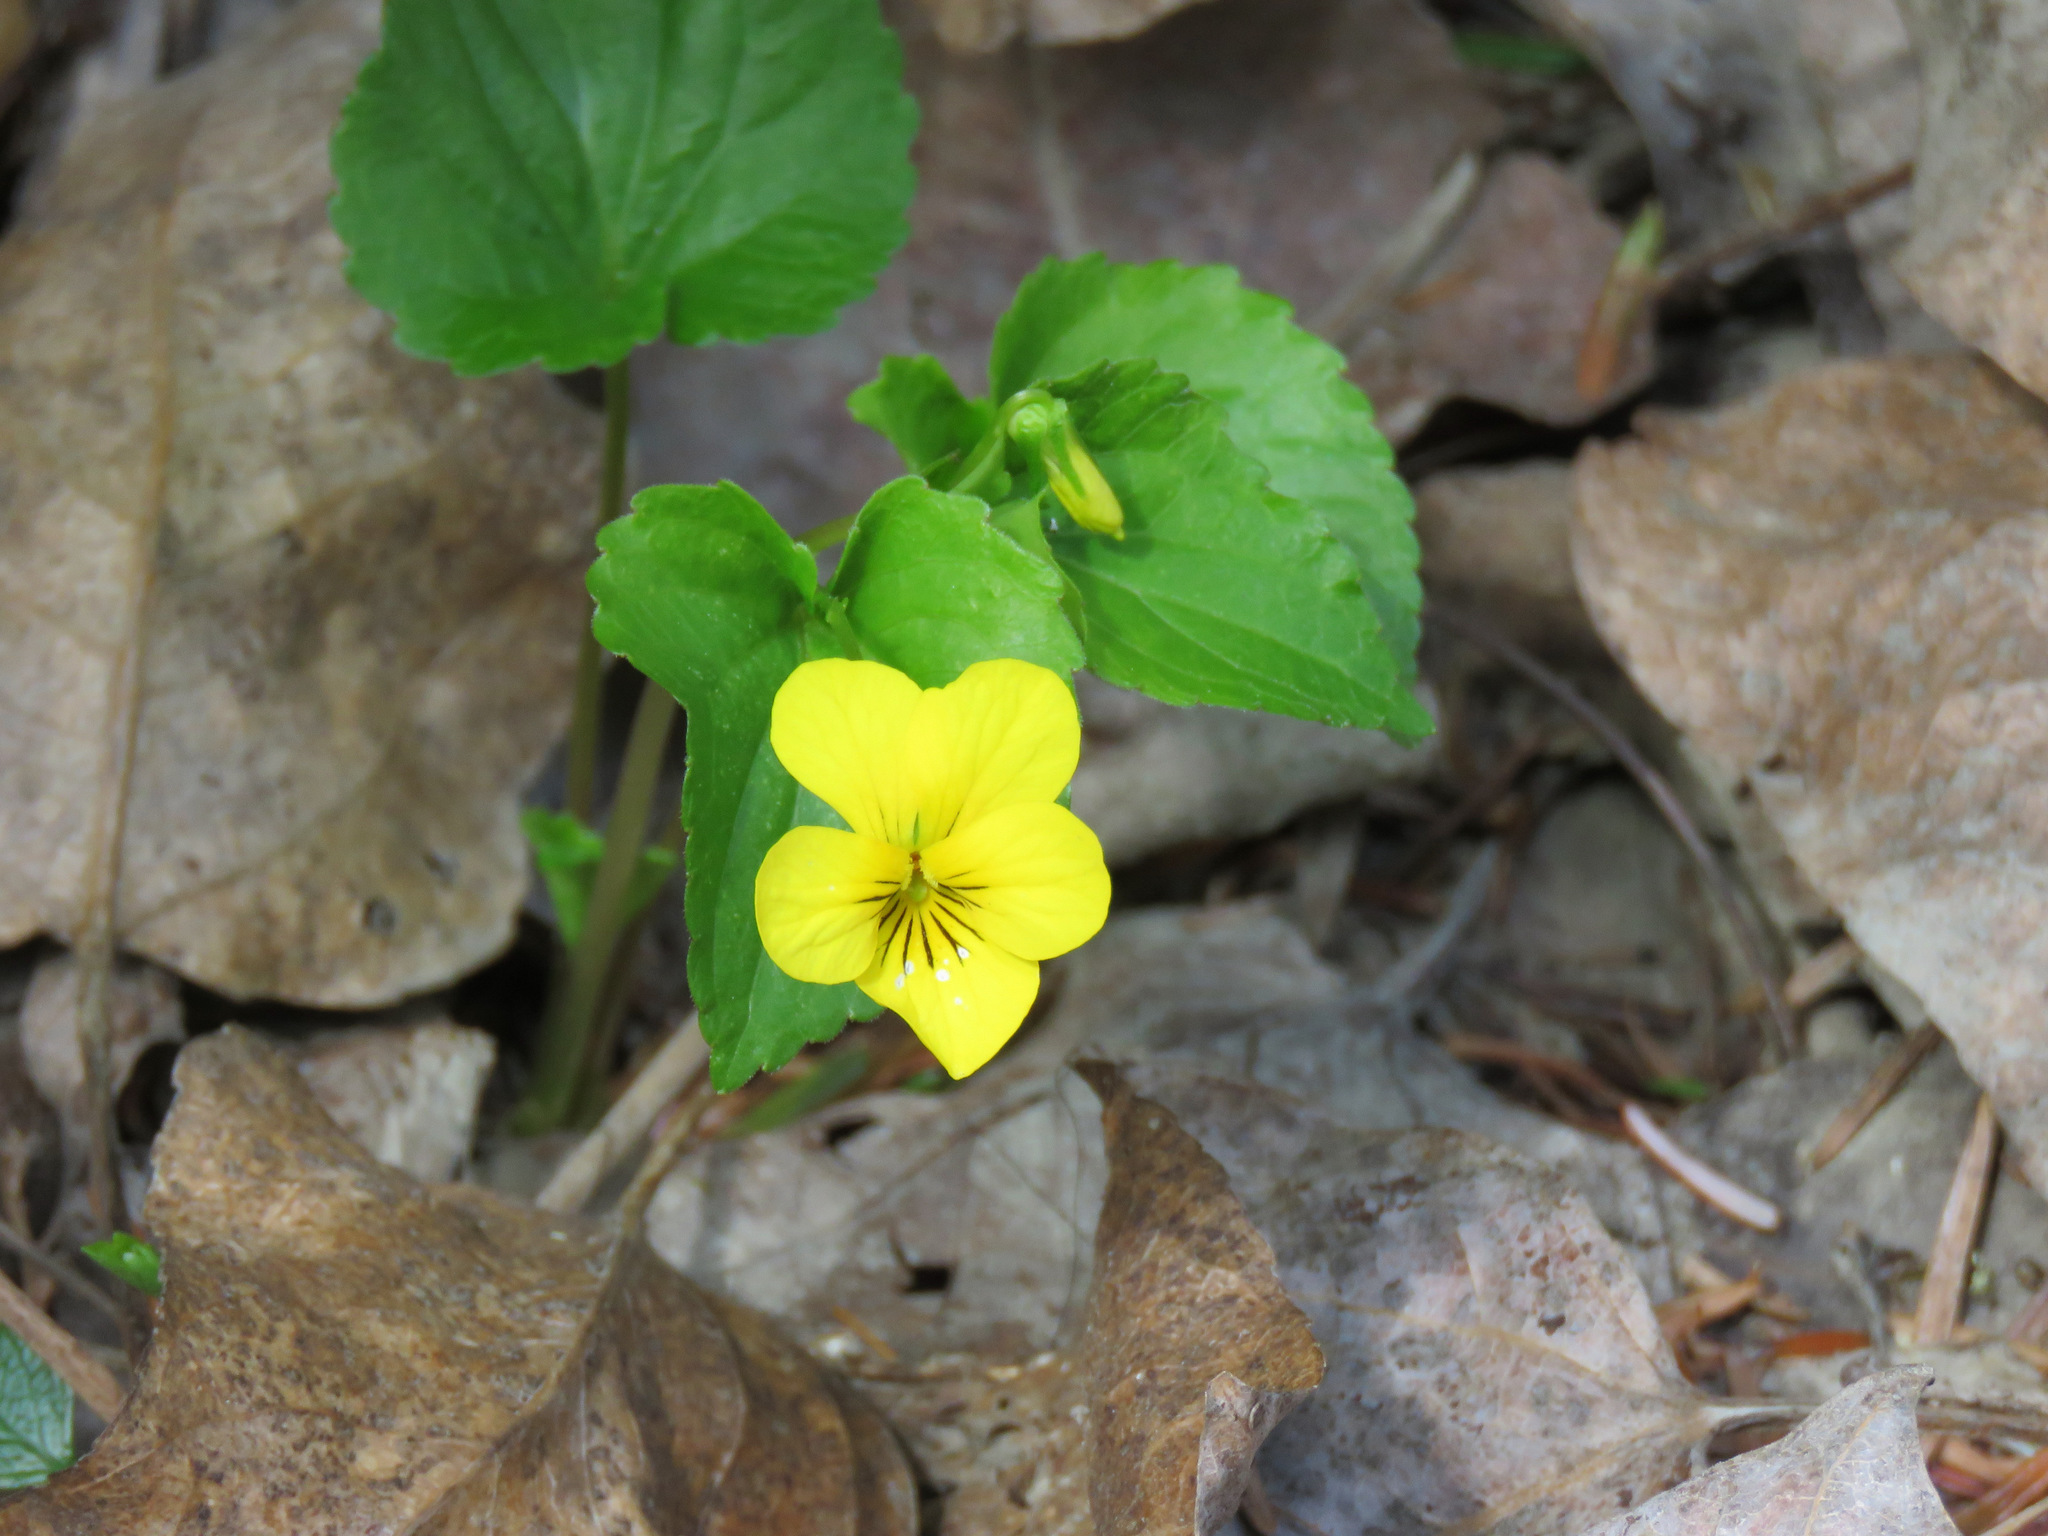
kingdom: Plantae
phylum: Tracheophyta
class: Magnoliopsida
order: Malpighiales
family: Violaceae
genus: Viola
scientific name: Viola glabella
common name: Stream violet
